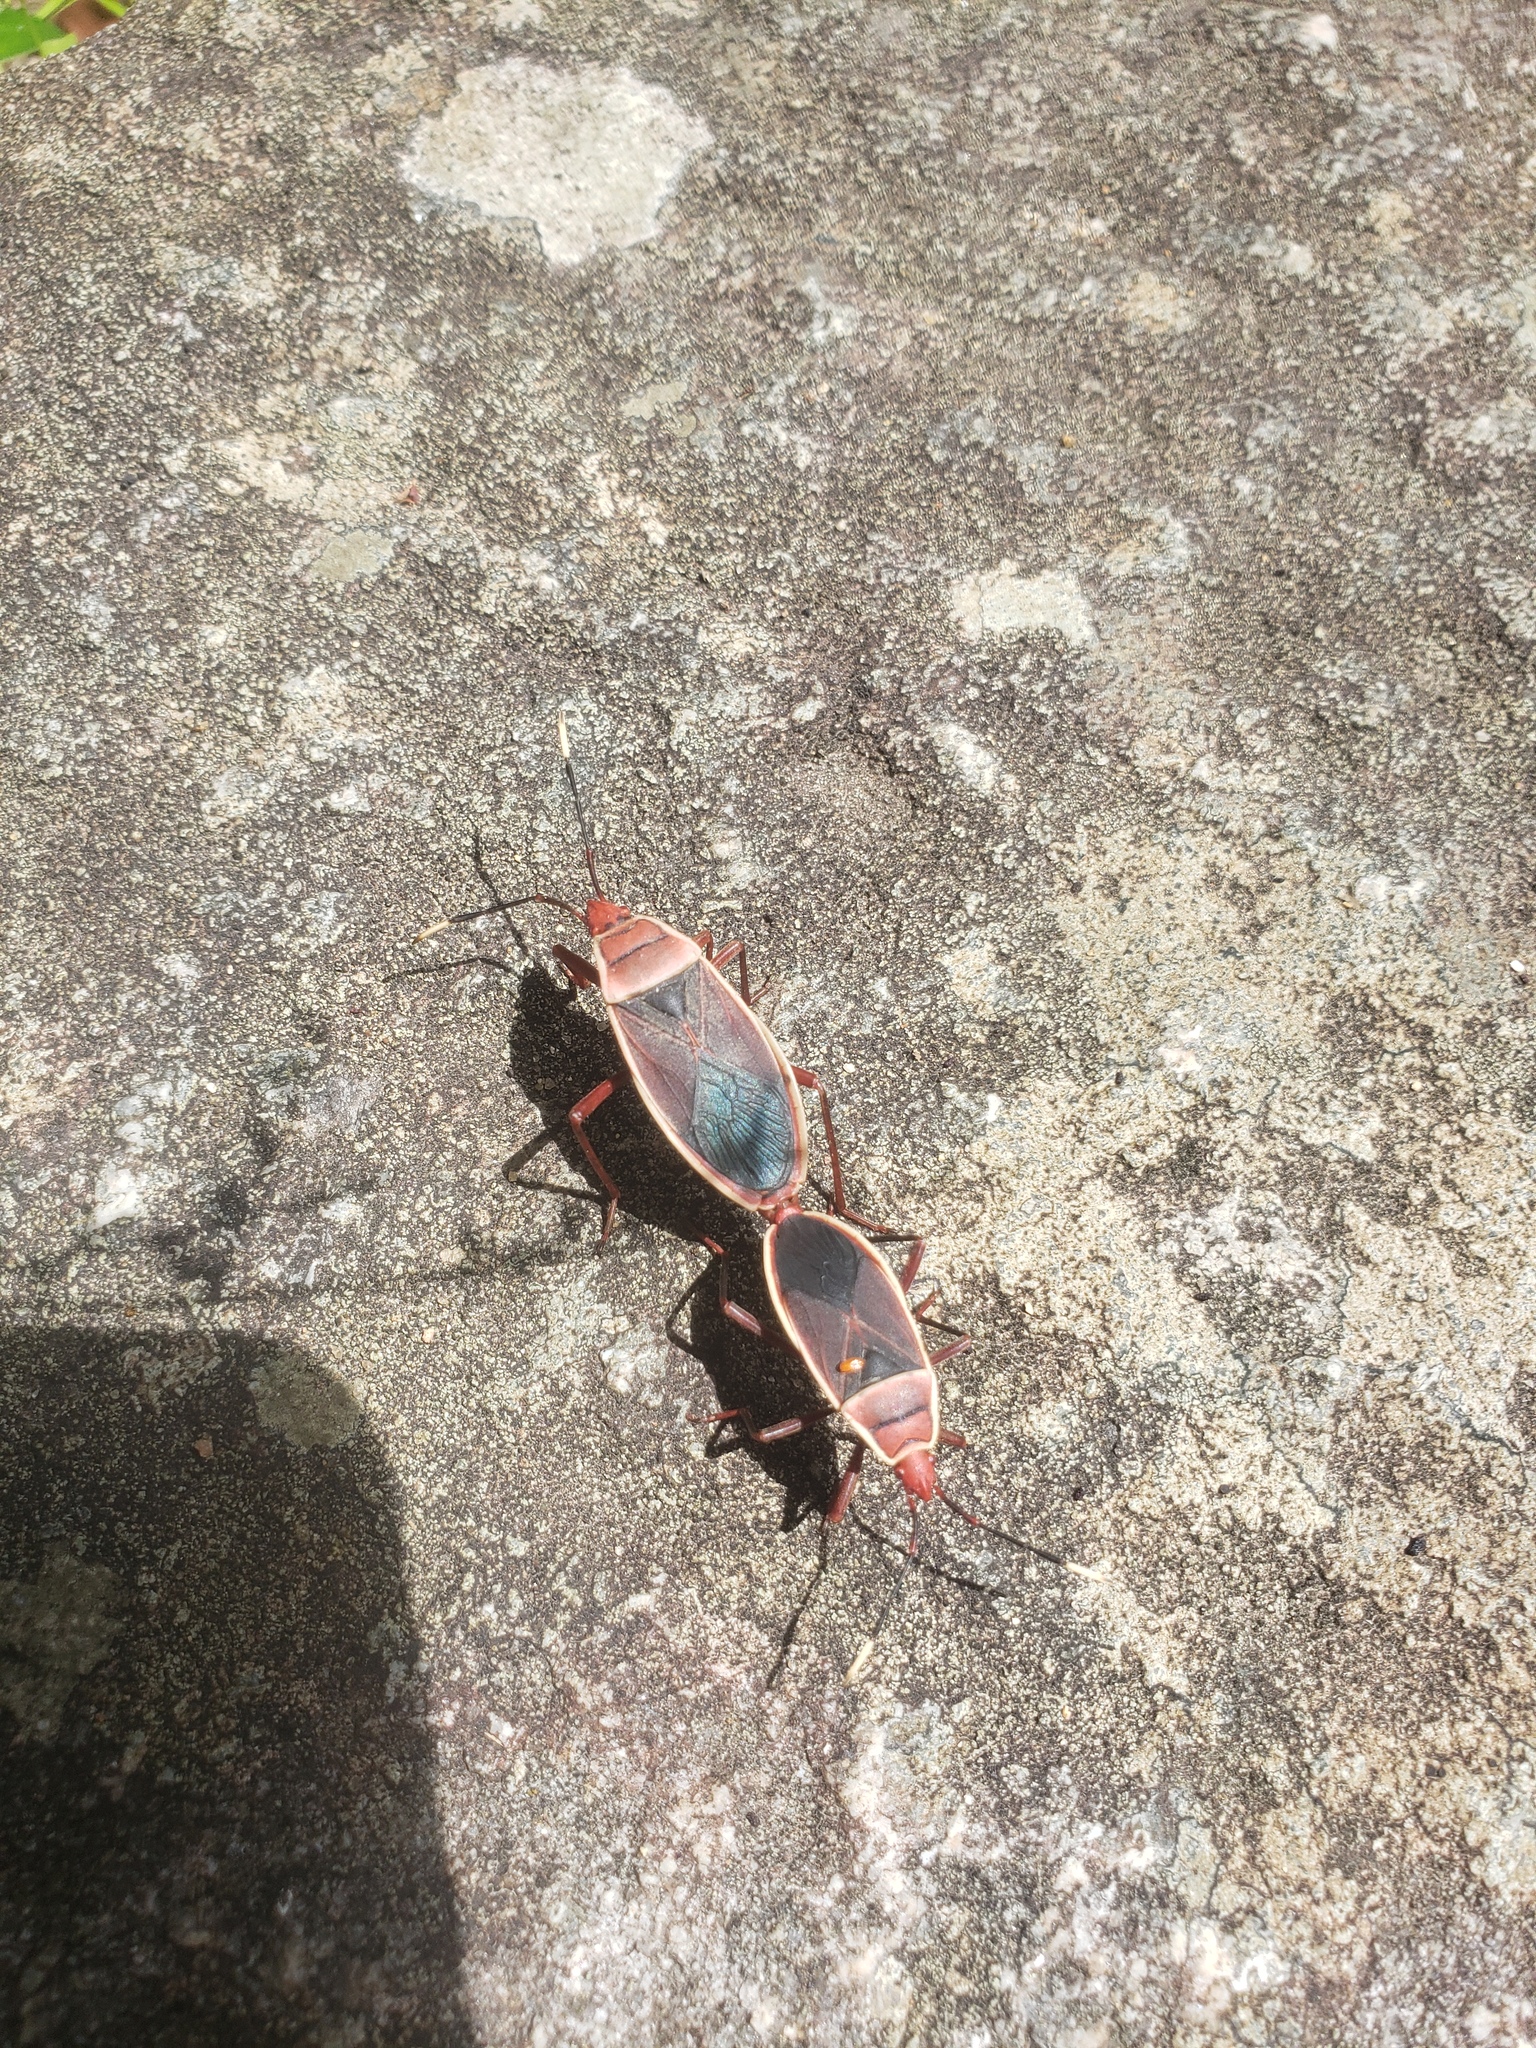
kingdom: Animalia
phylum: Arthropoda
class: Insecta
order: Hemiptera
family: Pyrrhocoridae
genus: Probergrothius
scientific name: Probergrothius varicornis
